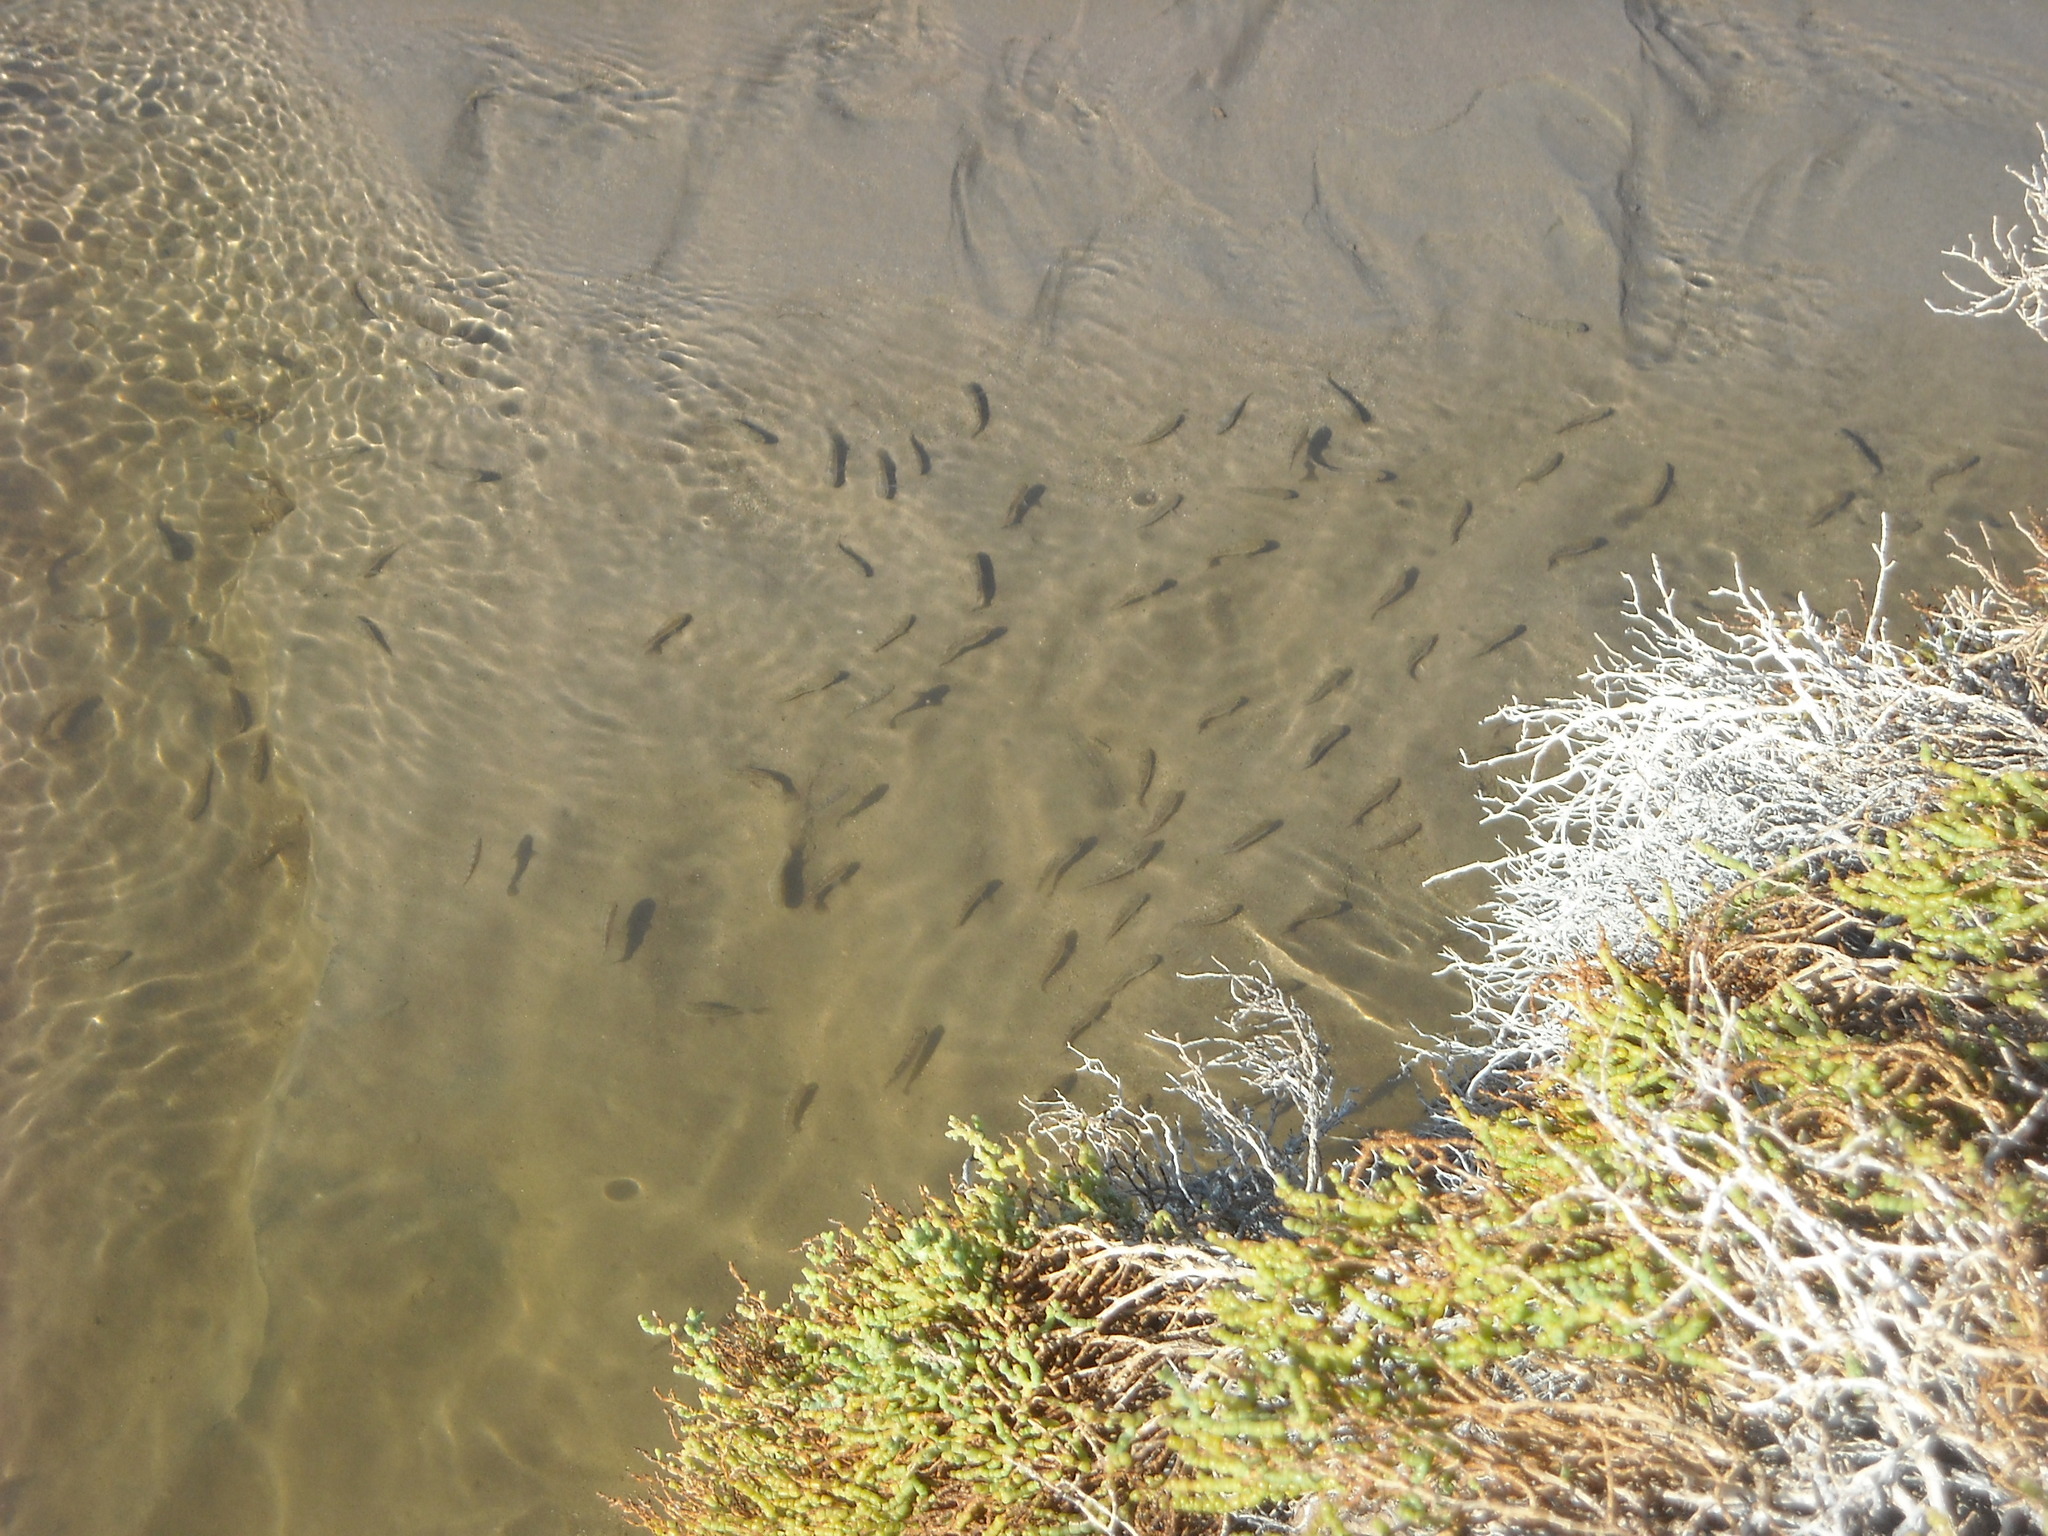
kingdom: Animalia
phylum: Chordata
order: Cyprinodontiformes
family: Cyprinodontidae
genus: Cyprinodon
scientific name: Cyprinodon salinus
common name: Cottonball marsh pupfish
